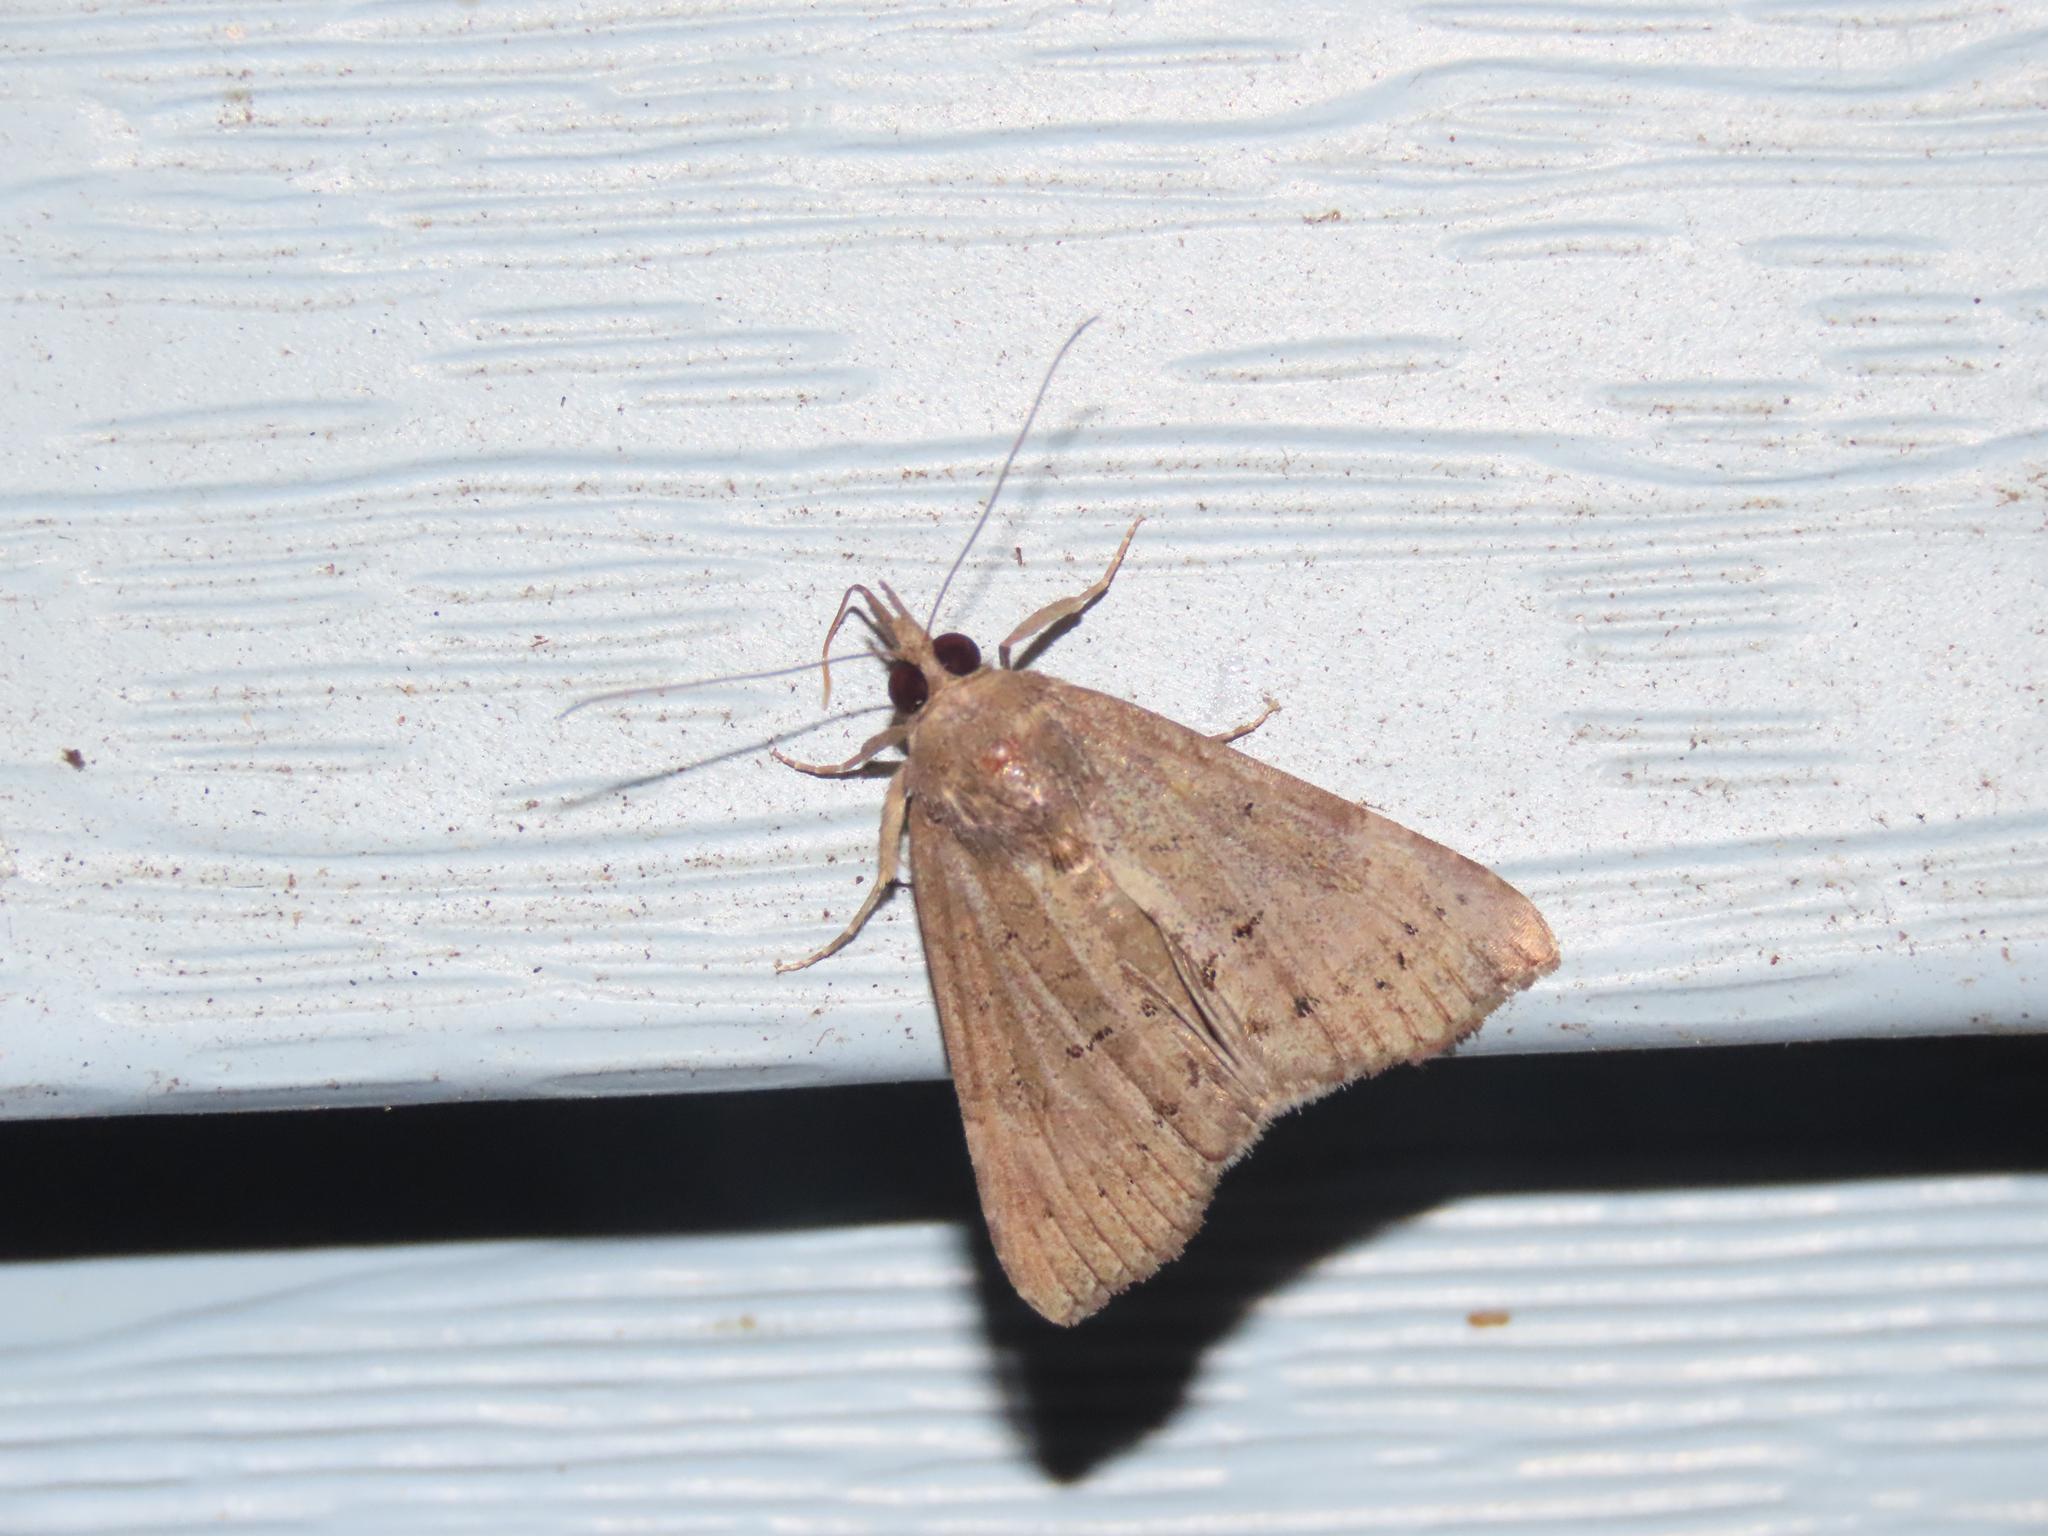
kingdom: Animalia
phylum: Arthropoda
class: Insecta
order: Lepidoptera
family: Erebidae
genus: Hypena
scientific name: Hypena scabra
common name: Green cloverworm
